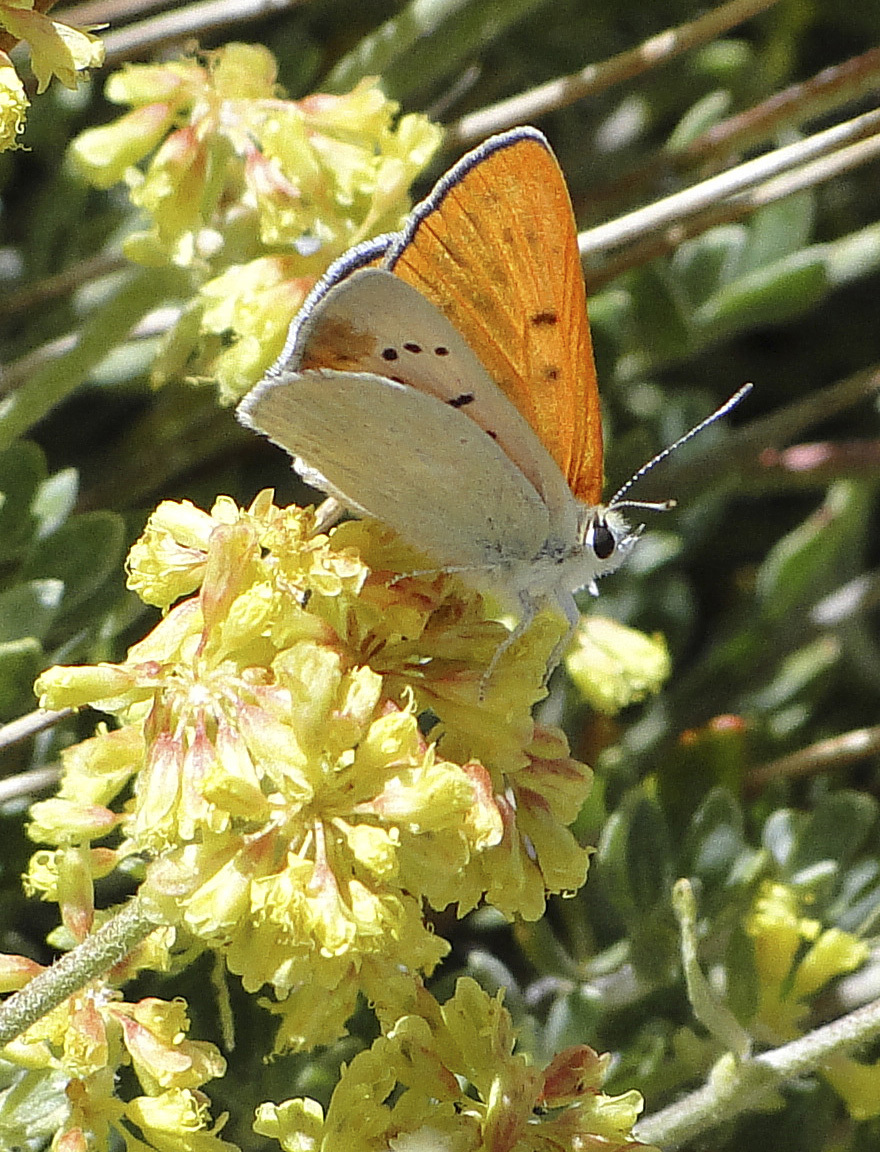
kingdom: Animalia
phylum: Arthropoda
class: Insecta
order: Lepidoptera
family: Lycaenidae
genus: Tharsalea
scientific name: Tharsalea rubidus
